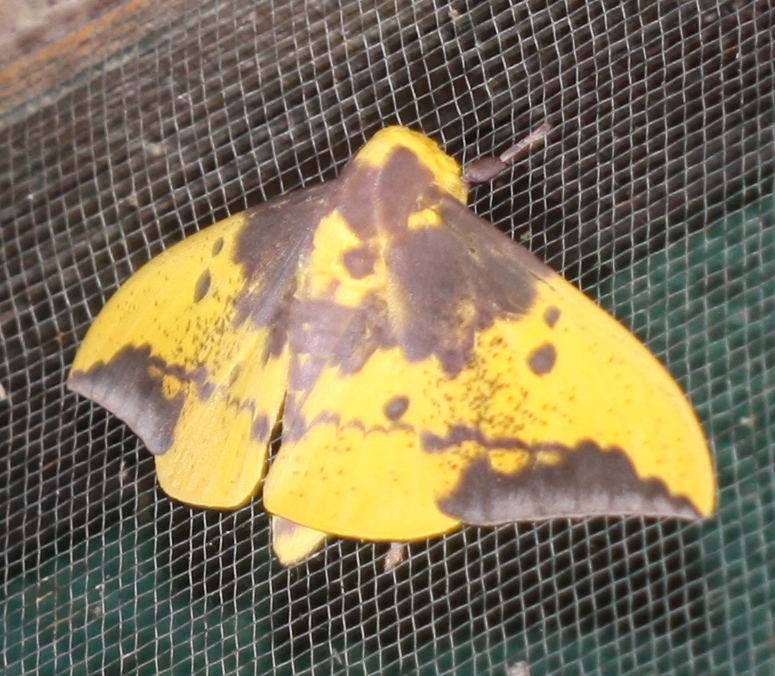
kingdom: Animalia
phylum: Arthropoda
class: Insecta
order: Lepidoptera
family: Saturniidae
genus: Eacles
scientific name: Eacles imperialis
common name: Imperial moth
